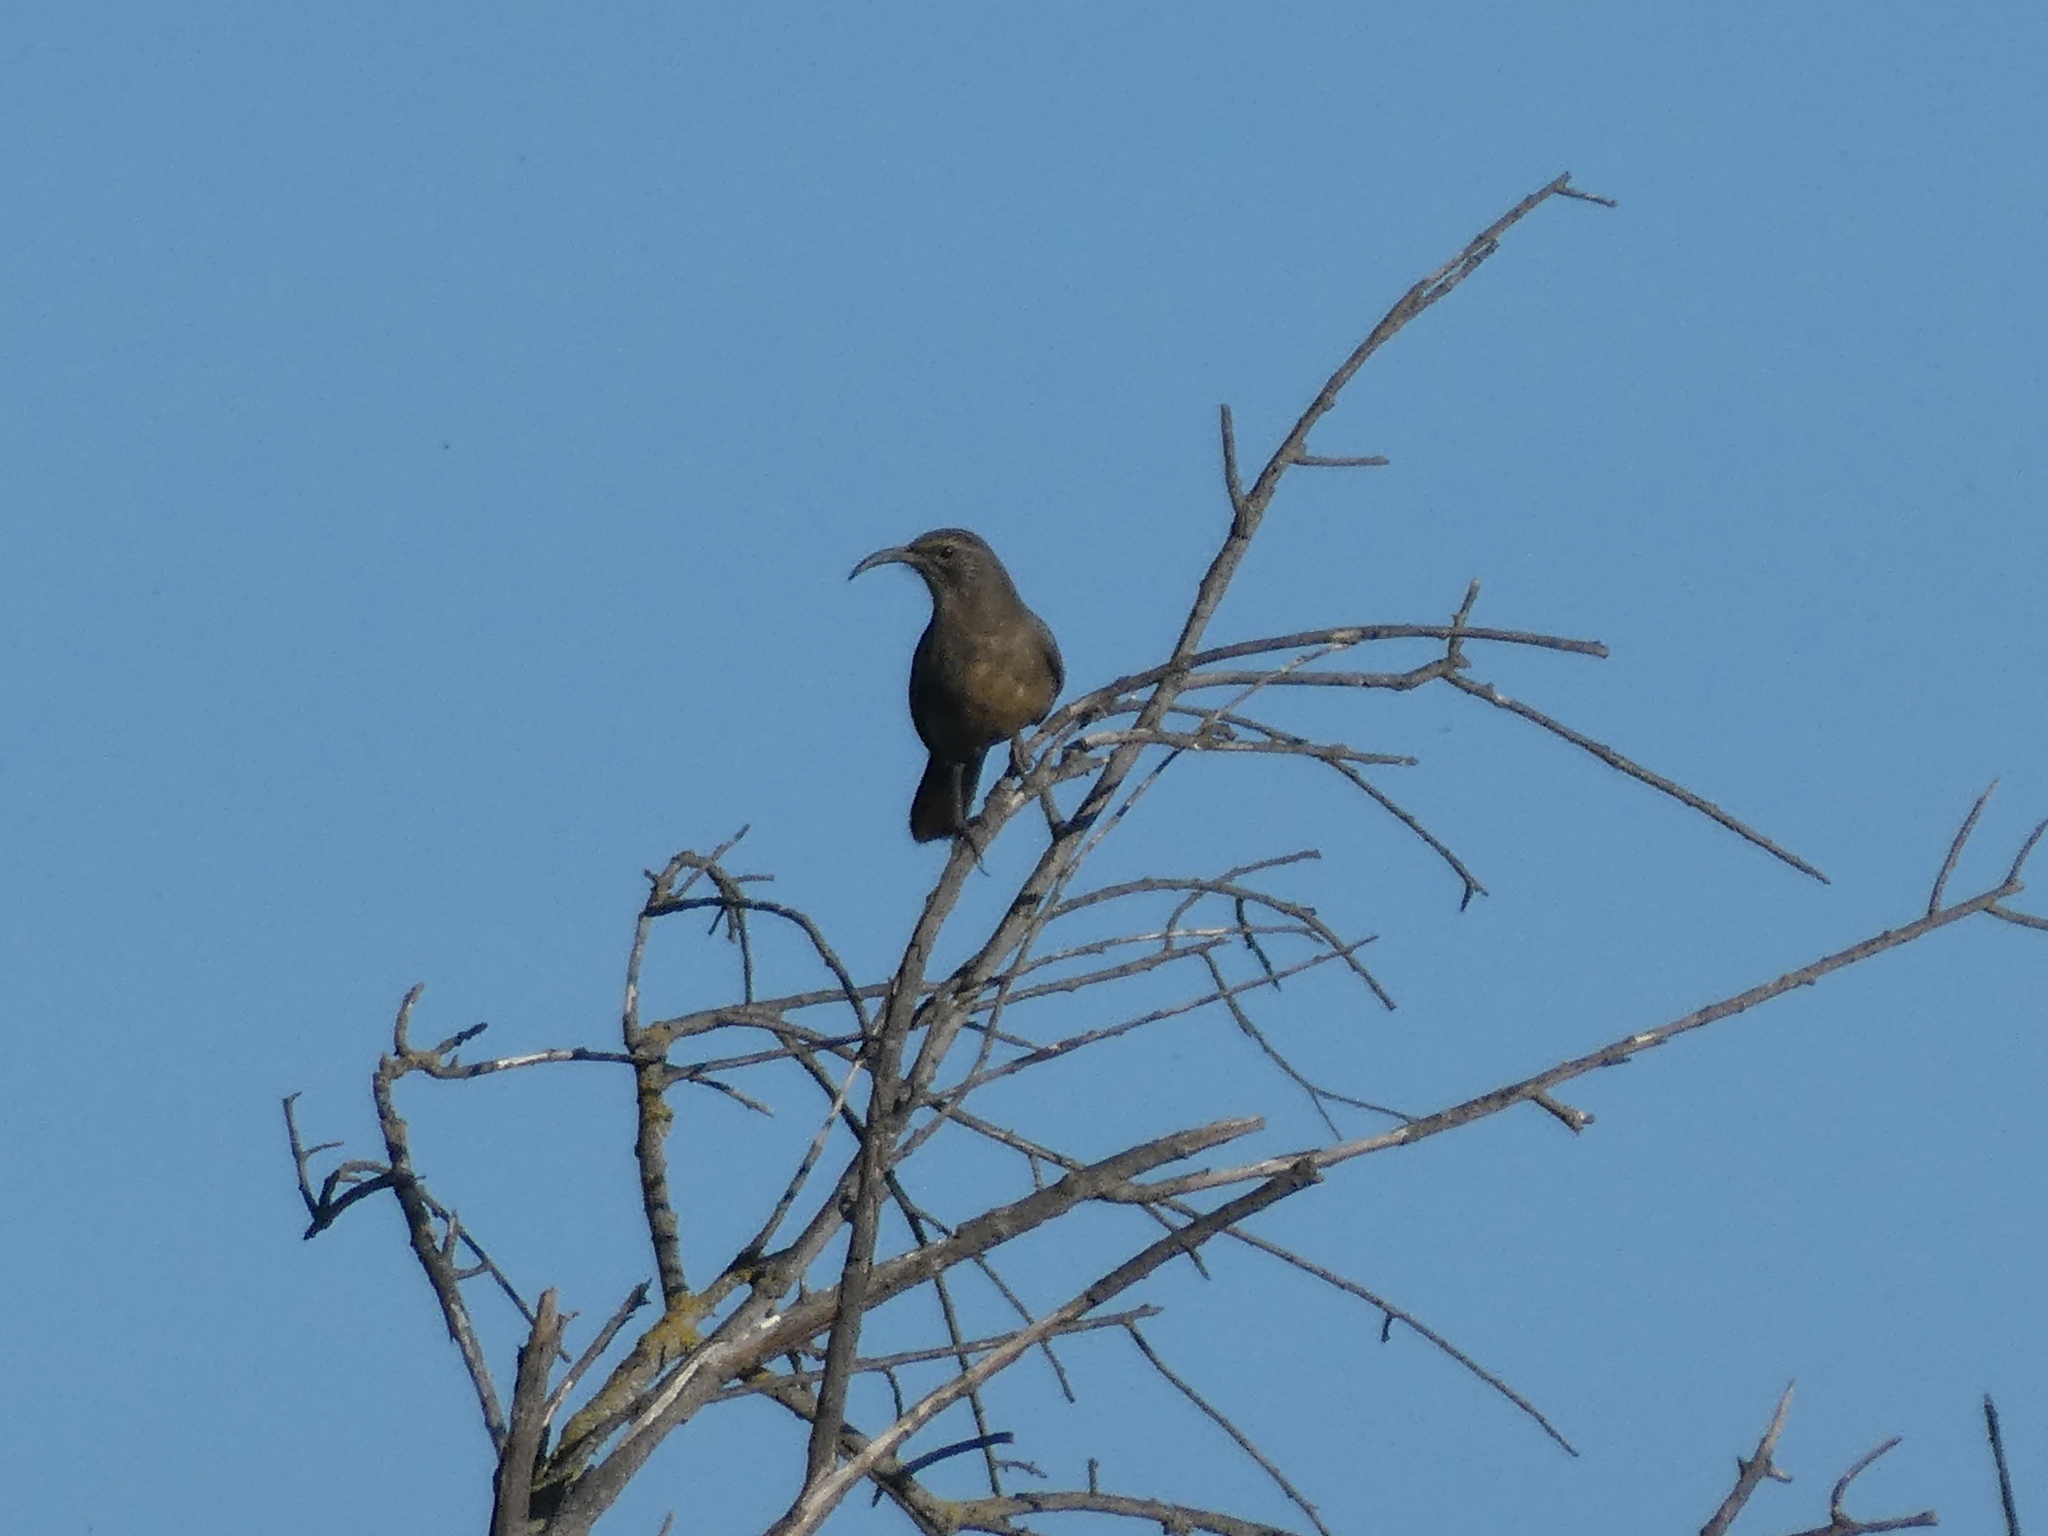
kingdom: Animalia
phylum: Chordata
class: Aves
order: Passeriformes
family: Mimidae
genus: Toxostoma
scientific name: Toxostoma redivivum
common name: California thrasher
